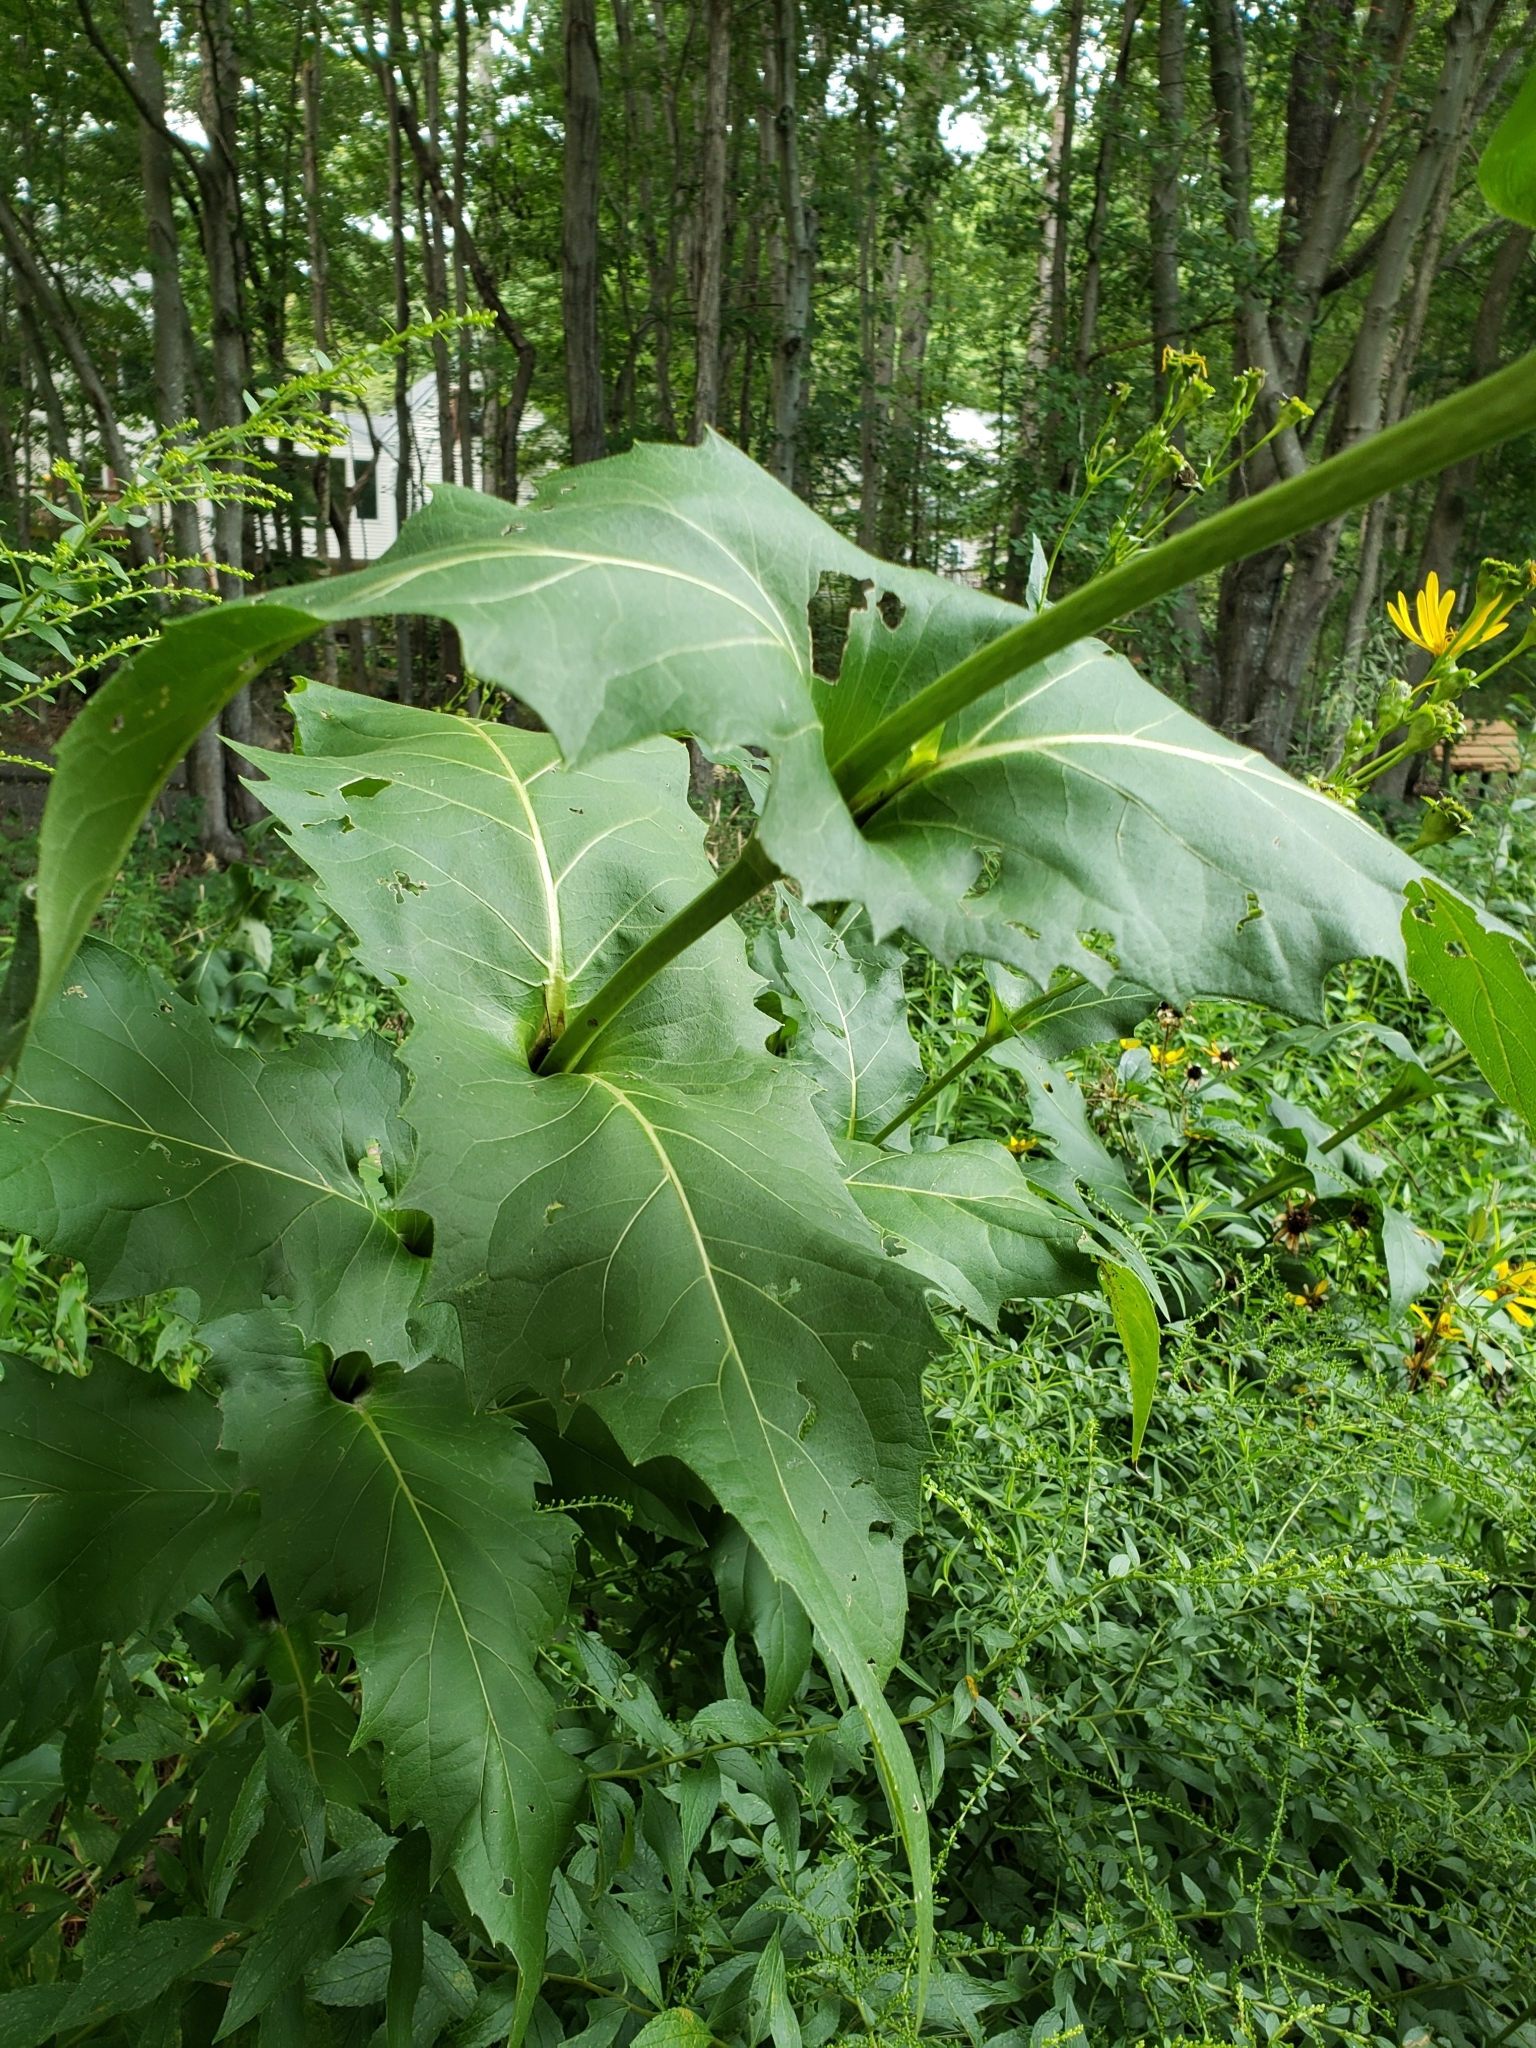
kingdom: Plantae
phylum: Tracheophyta
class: Magnoliopsida
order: Asterales
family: Asteraceae
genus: Silphium
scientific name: Silphium perfoliatum
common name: Cup-plant
